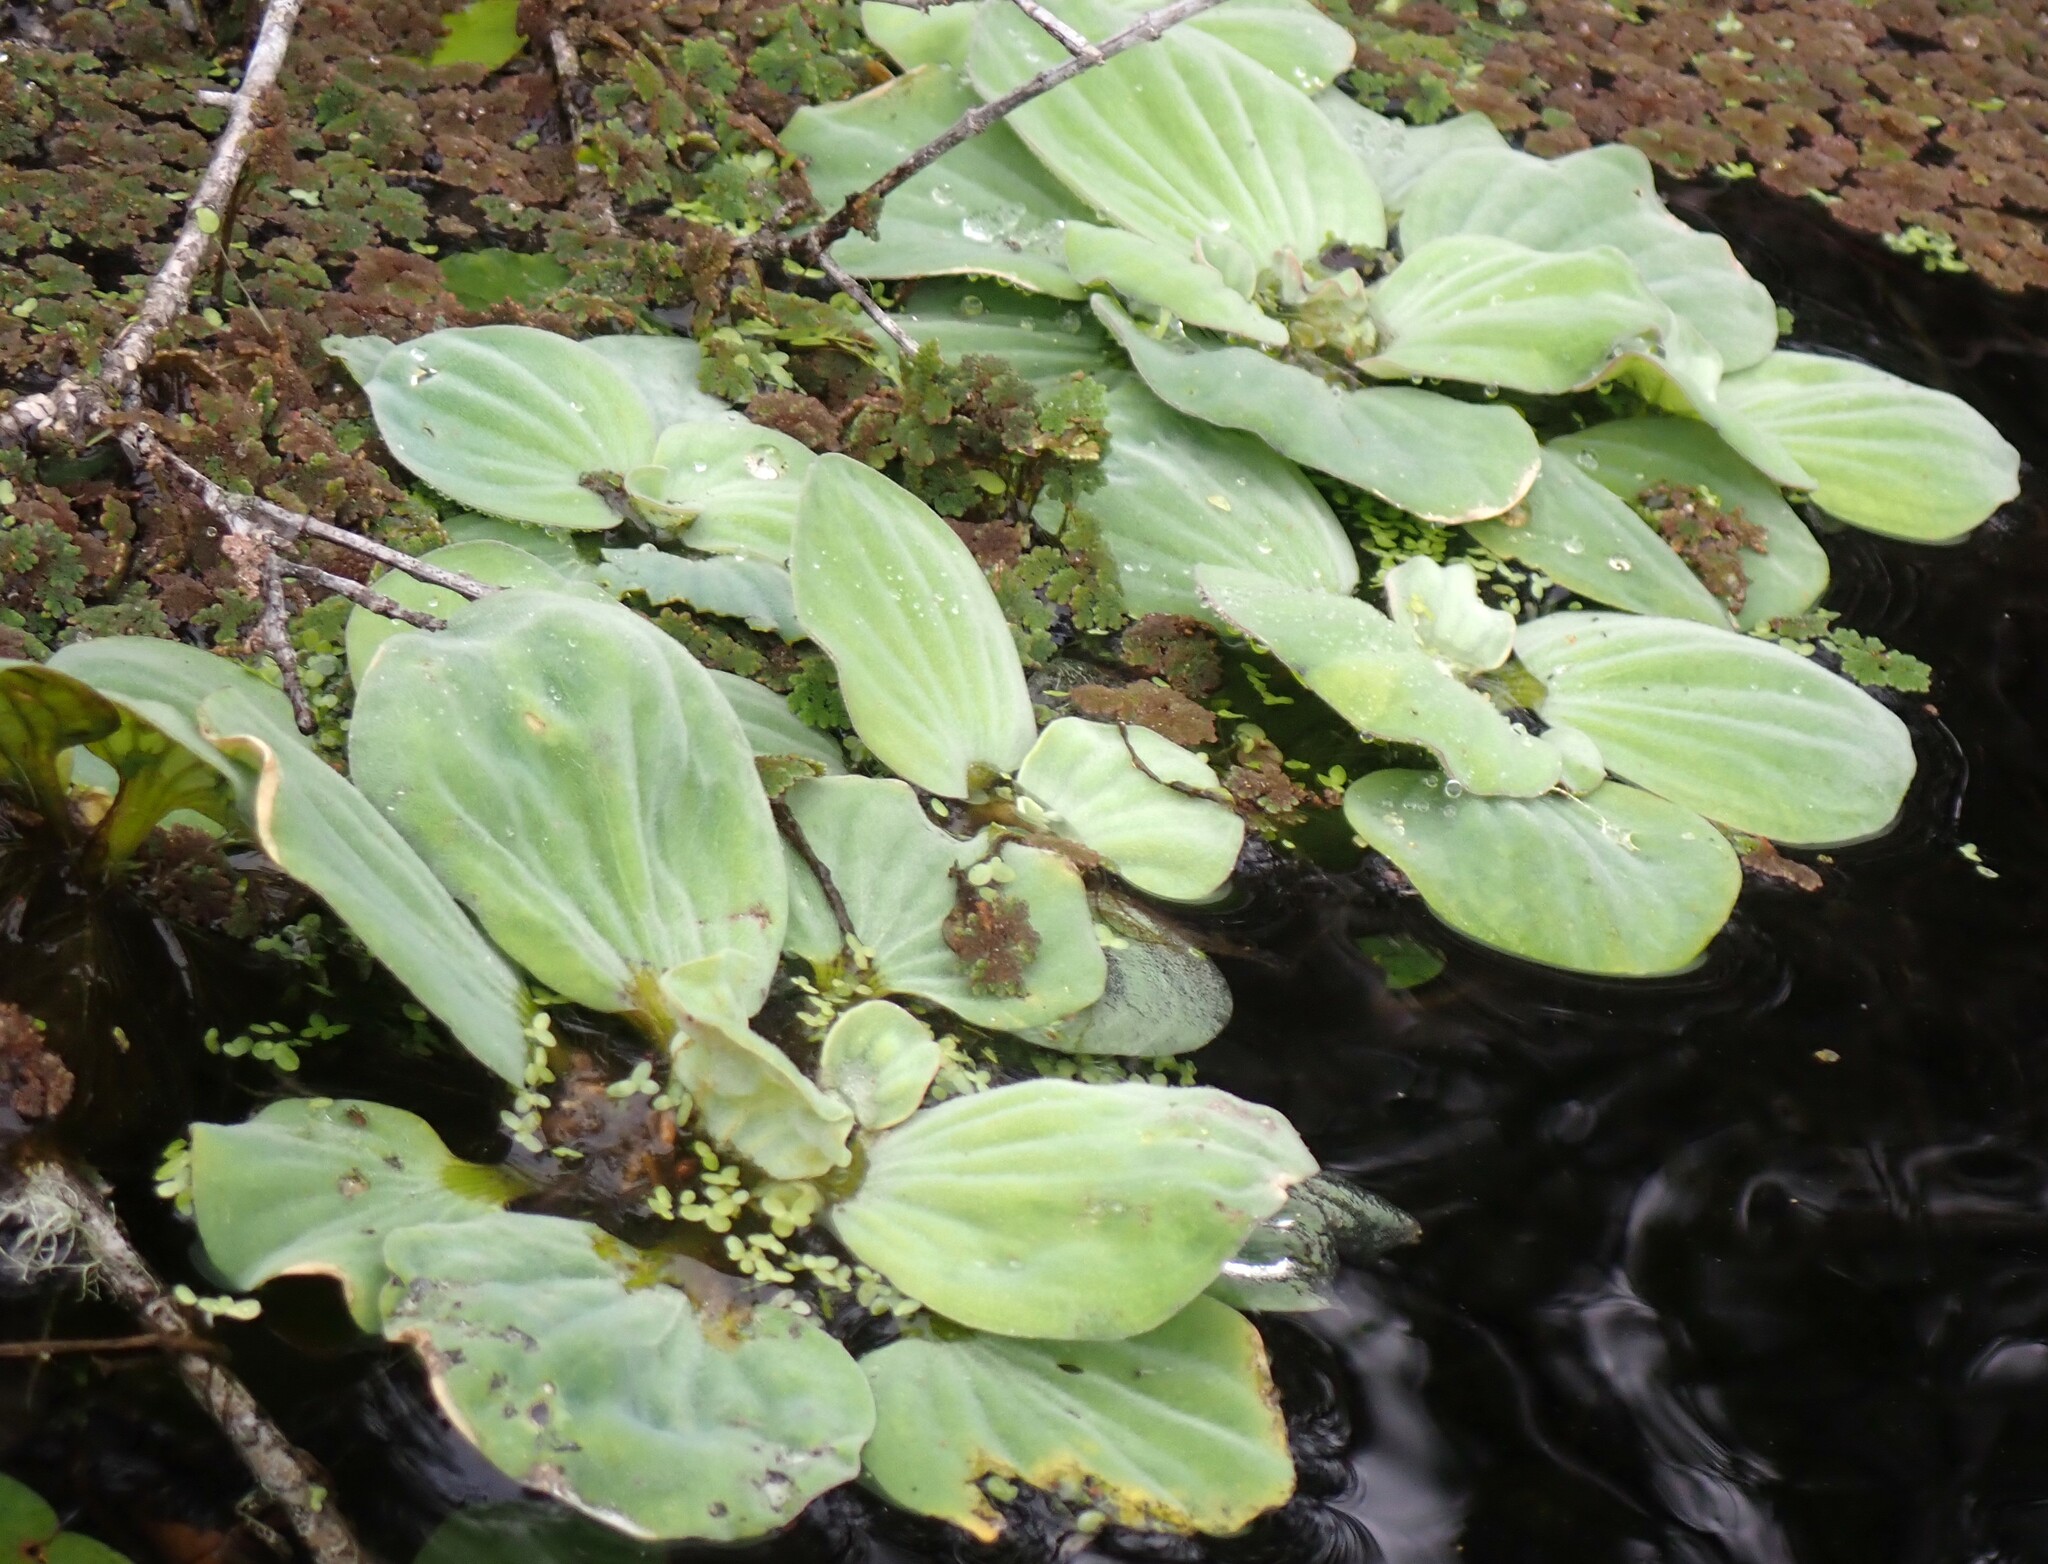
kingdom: Plantae
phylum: Tracheophyta
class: Liliopsida
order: Alismatales
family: Araceae
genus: Pistia
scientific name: Pistia stratiotes
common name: Water lettuce
